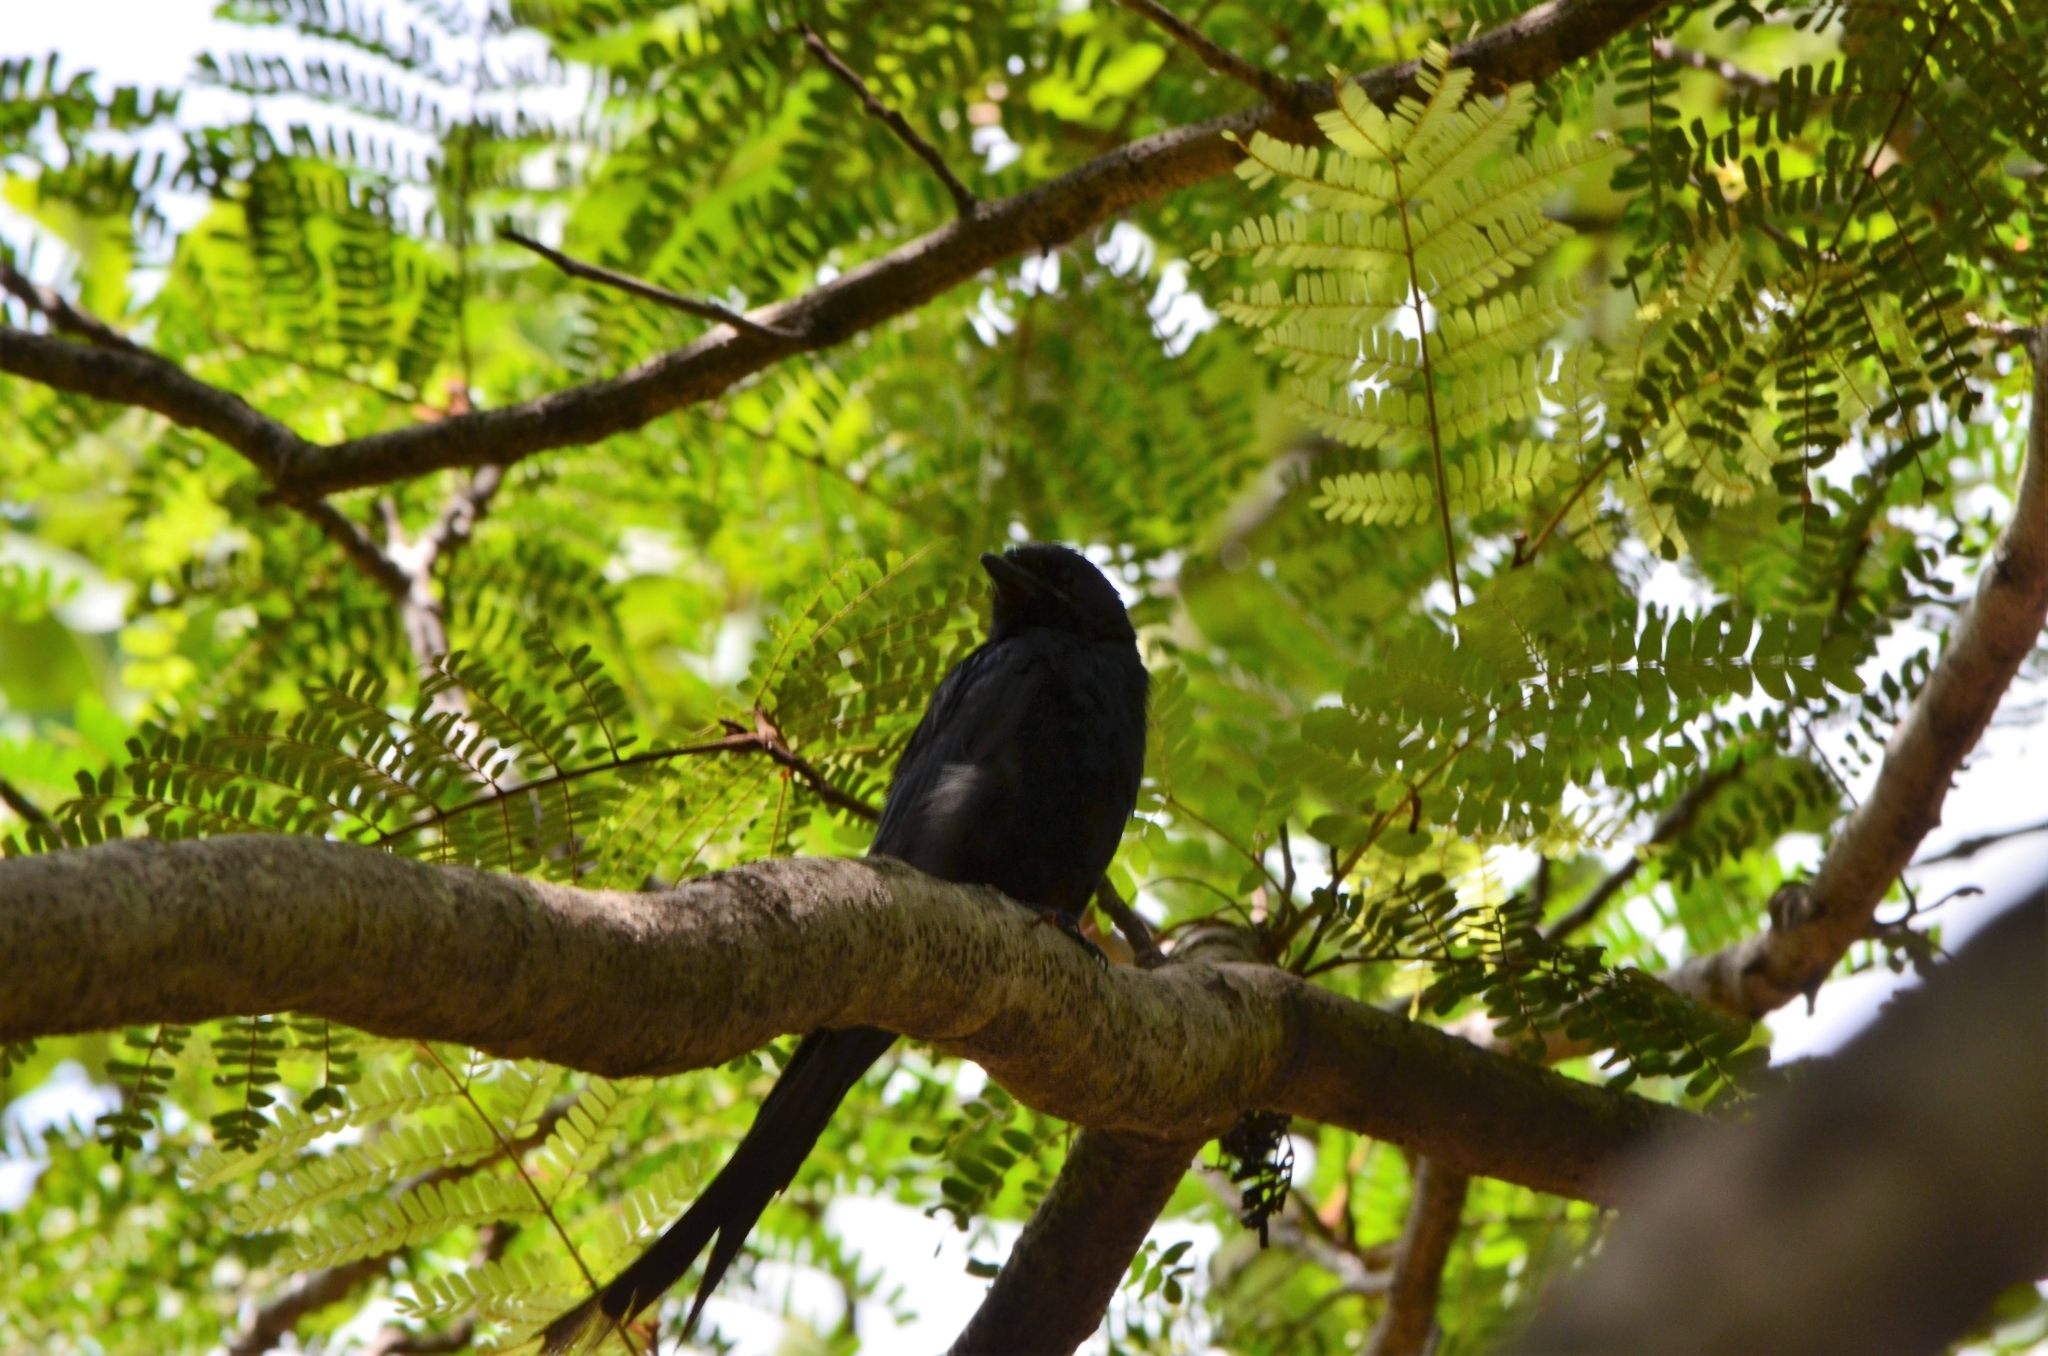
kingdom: Animalia
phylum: Chordata
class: Aves
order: Passeriformes
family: Dicruridae
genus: Dicrurus
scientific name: Dicrurus macrocercus
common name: Black drongo
